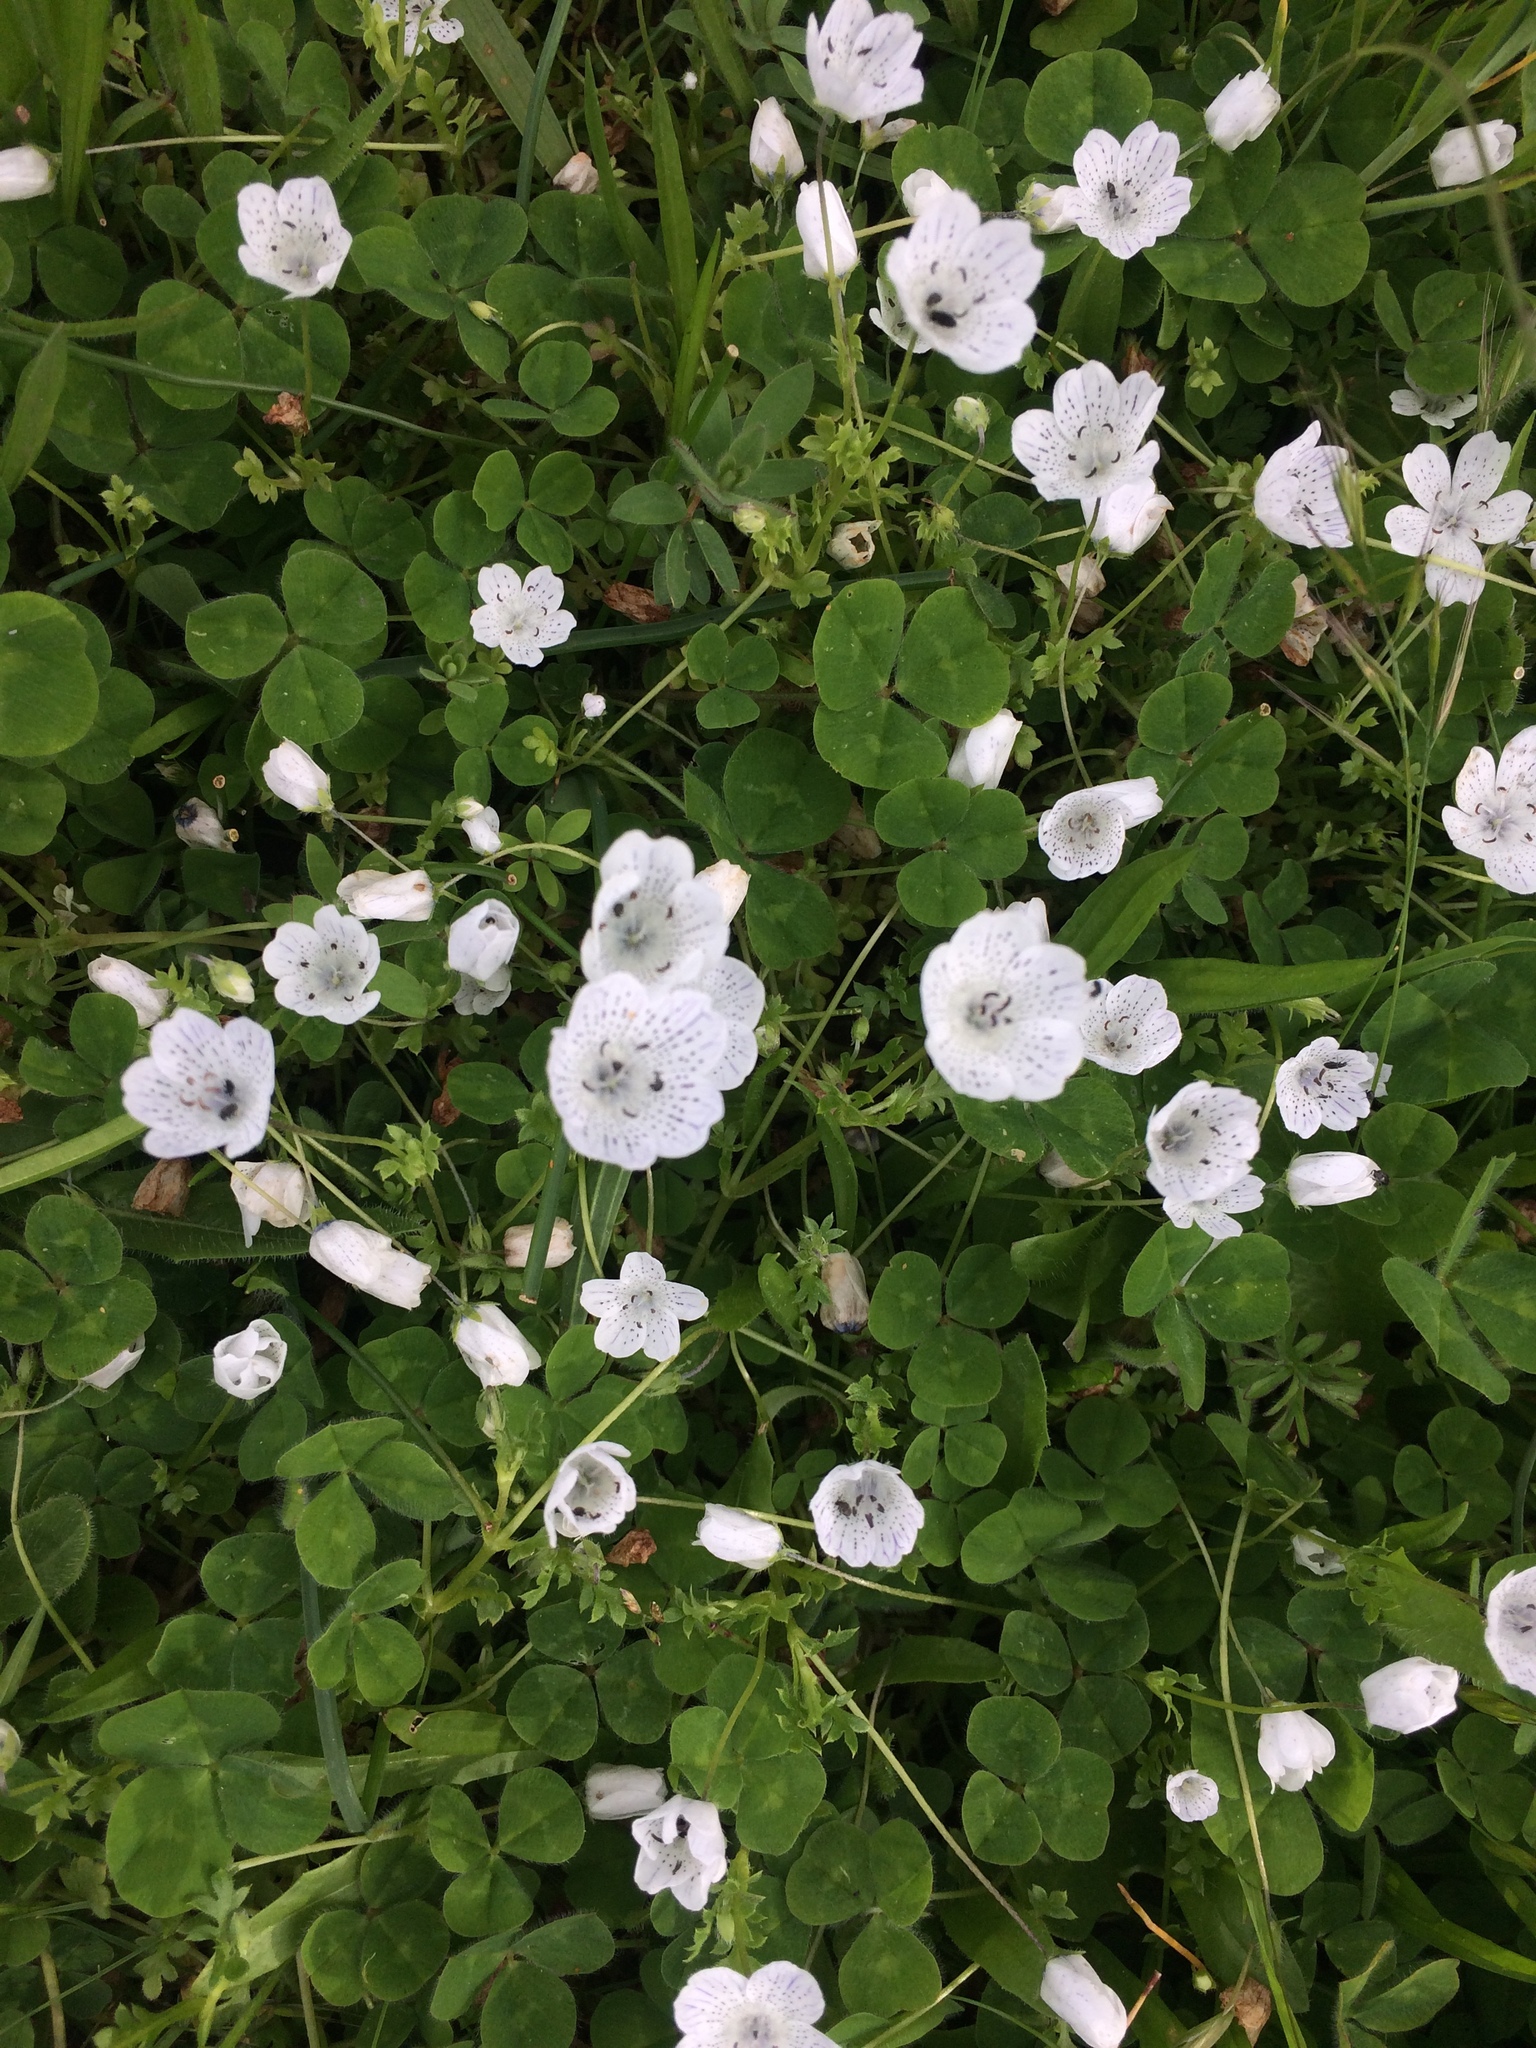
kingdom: Plantae
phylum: Tracheophyta
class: Magnoliopsida
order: Boraginales
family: Hydrophyllaceae
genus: Nemophila
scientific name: Nemophila menziesii
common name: Baby's-blue-eyes
